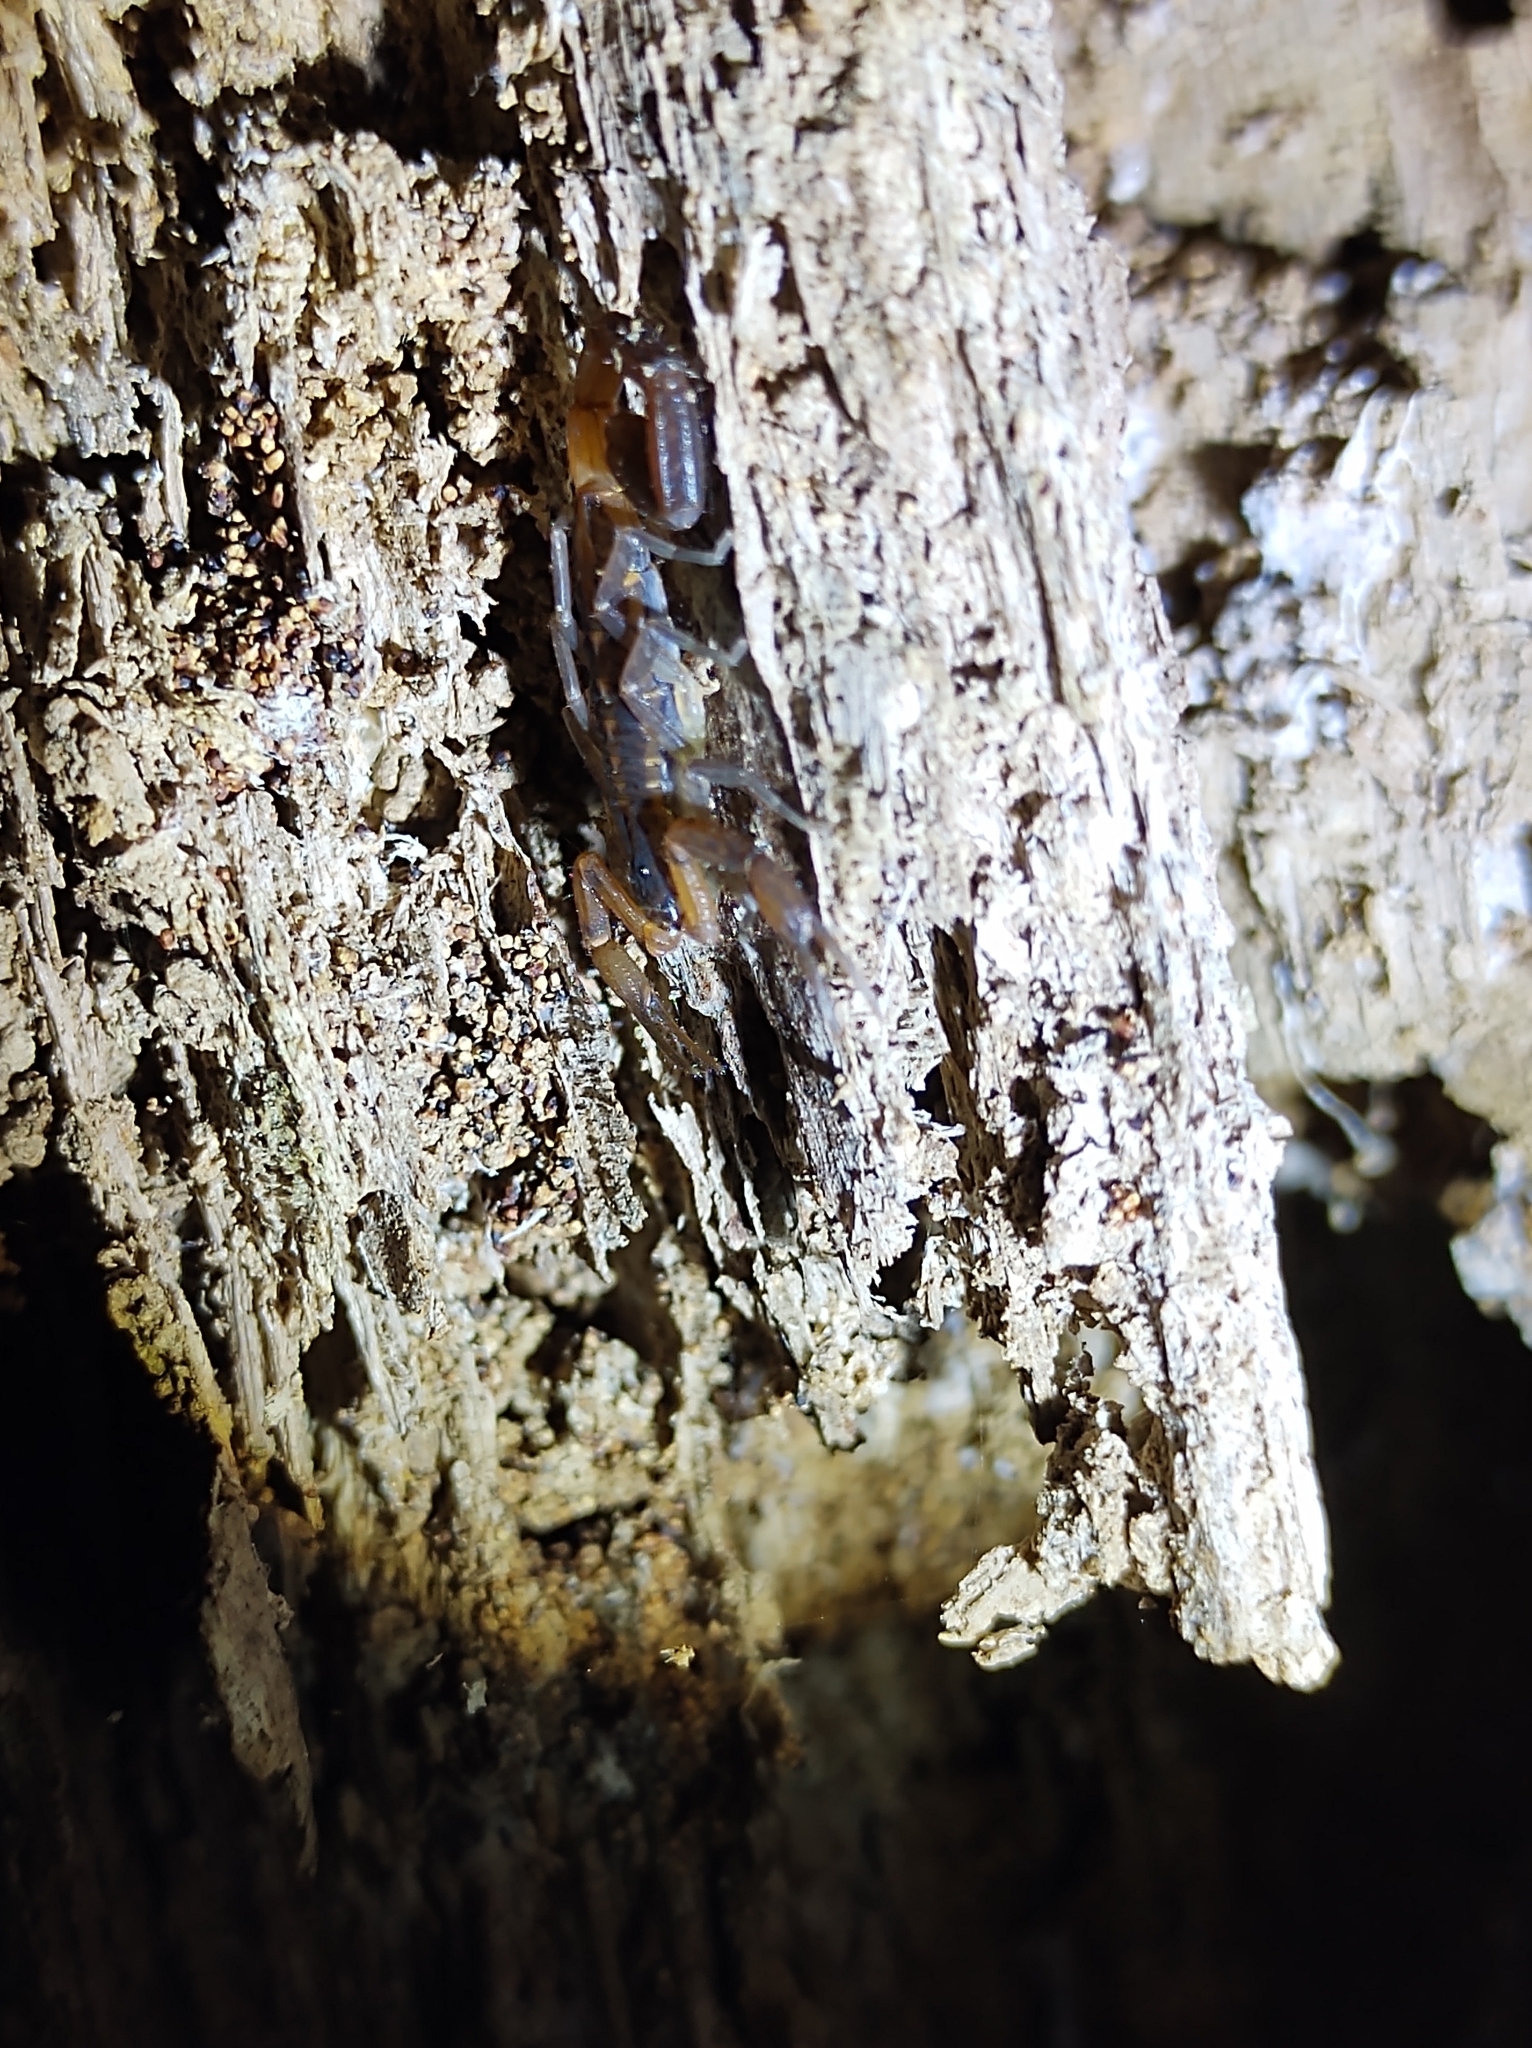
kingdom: Animalia
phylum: Arthropoda
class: Arachnida
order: Scorpiones
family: Buthidae
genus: Centruroides
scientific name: Centruroides hentzi
